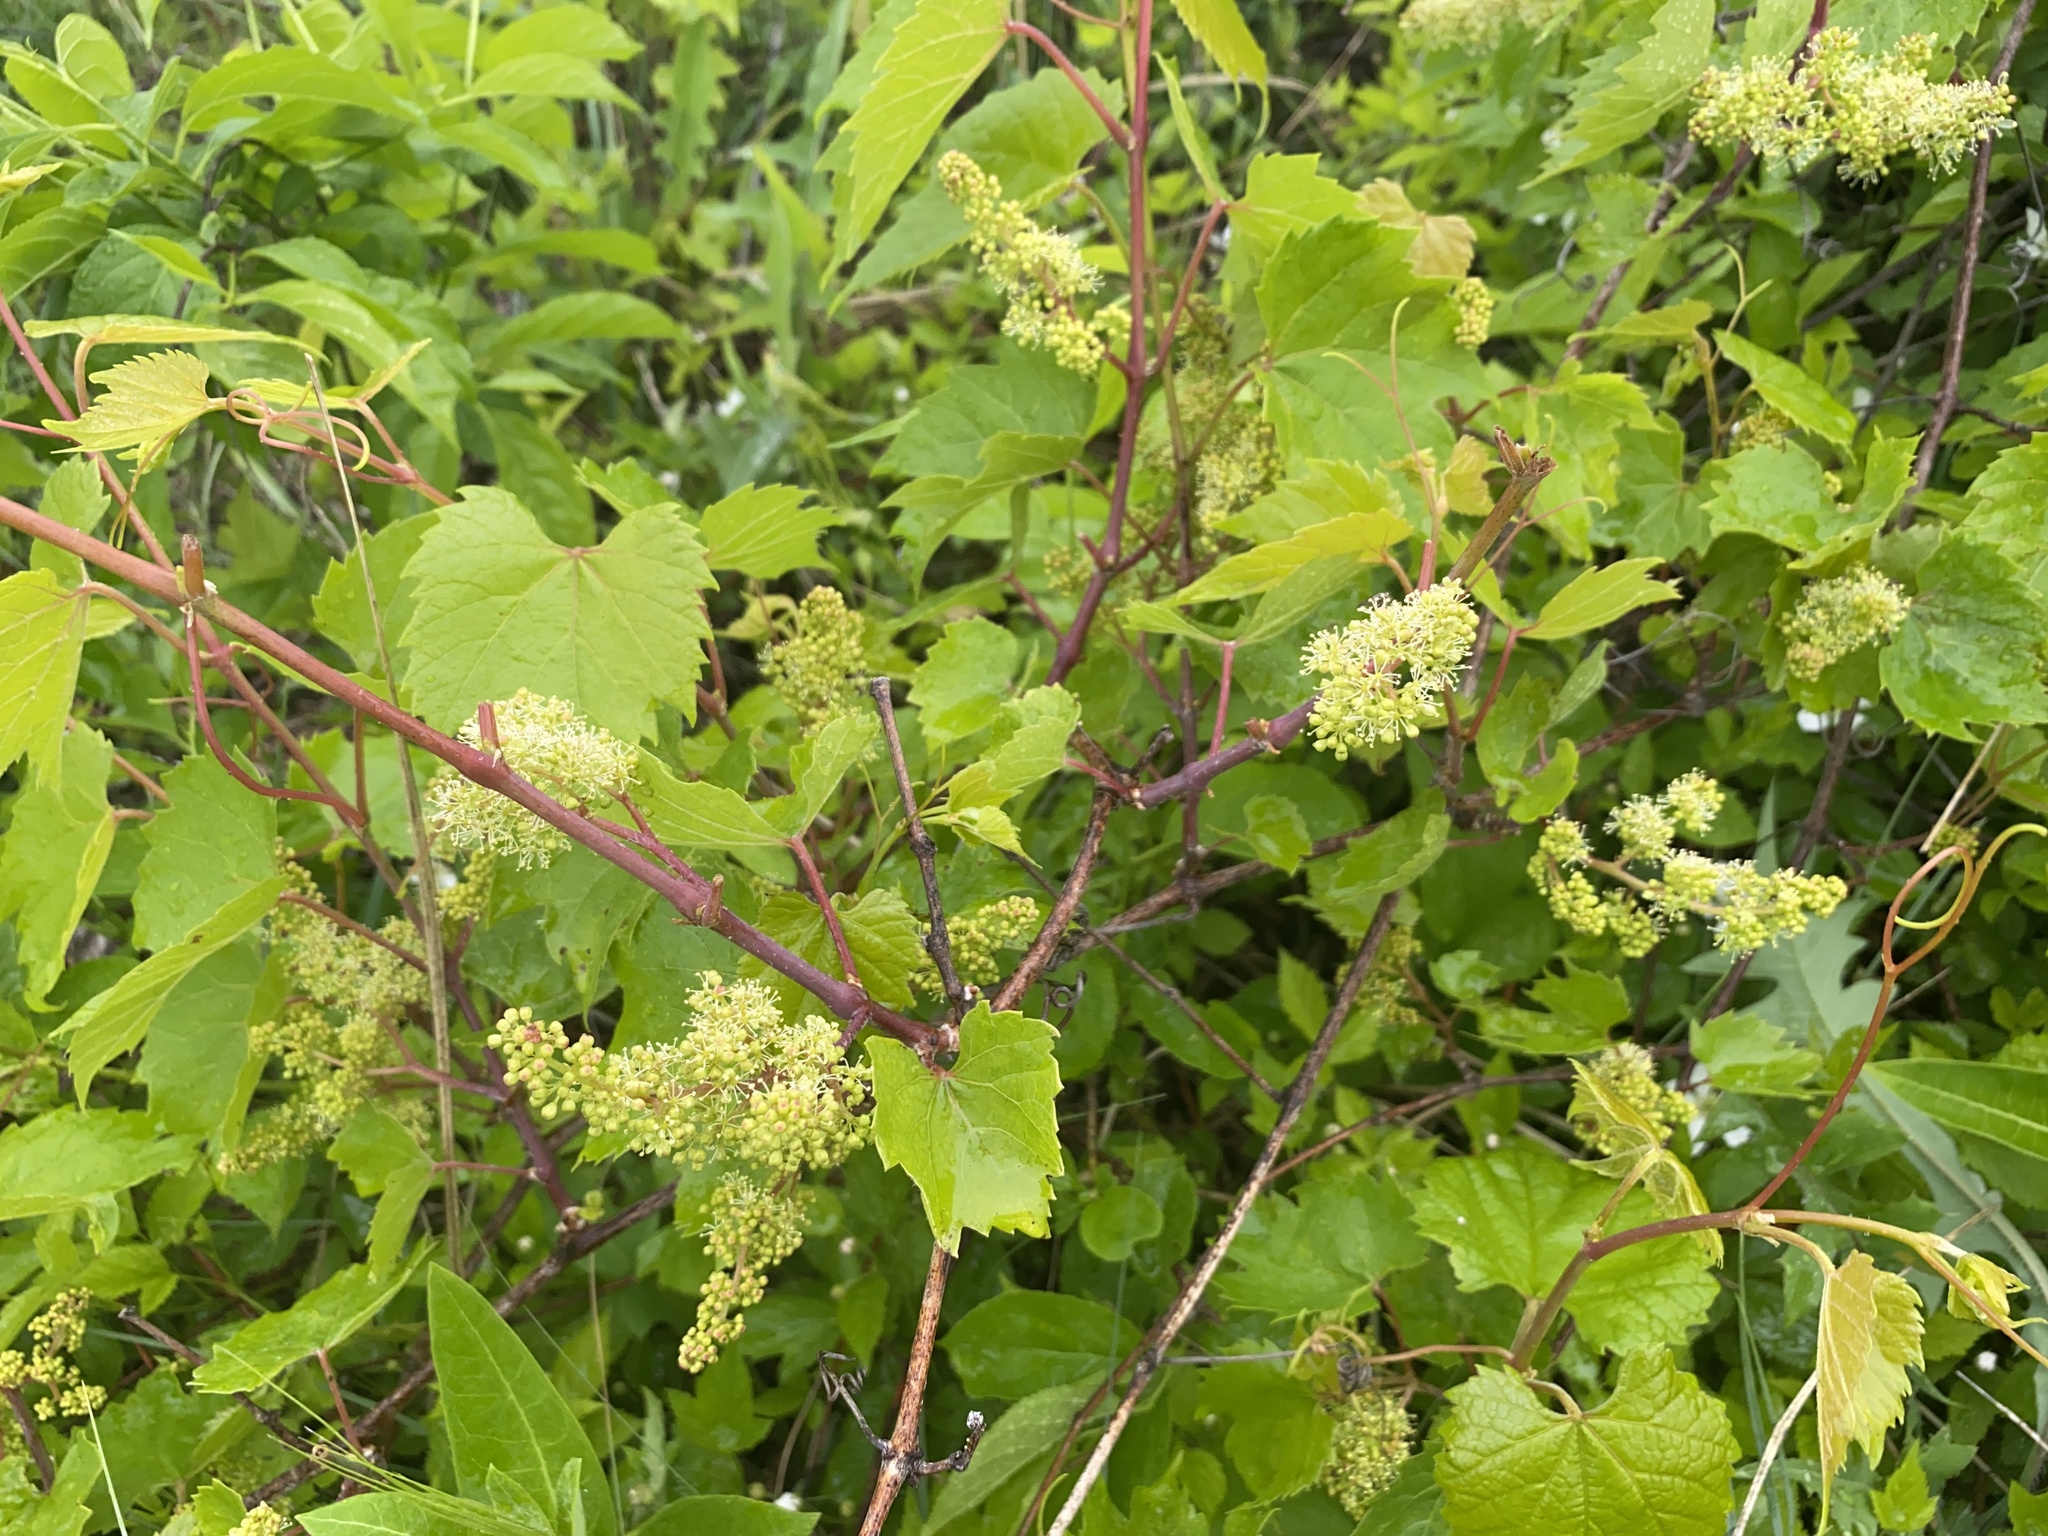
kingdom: Plantae
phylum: Tracheophyta
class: Magnoliopsida
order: Vitales
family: Vitaceae
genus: Vitis
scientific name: Vitis riparia
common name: Frost grape
